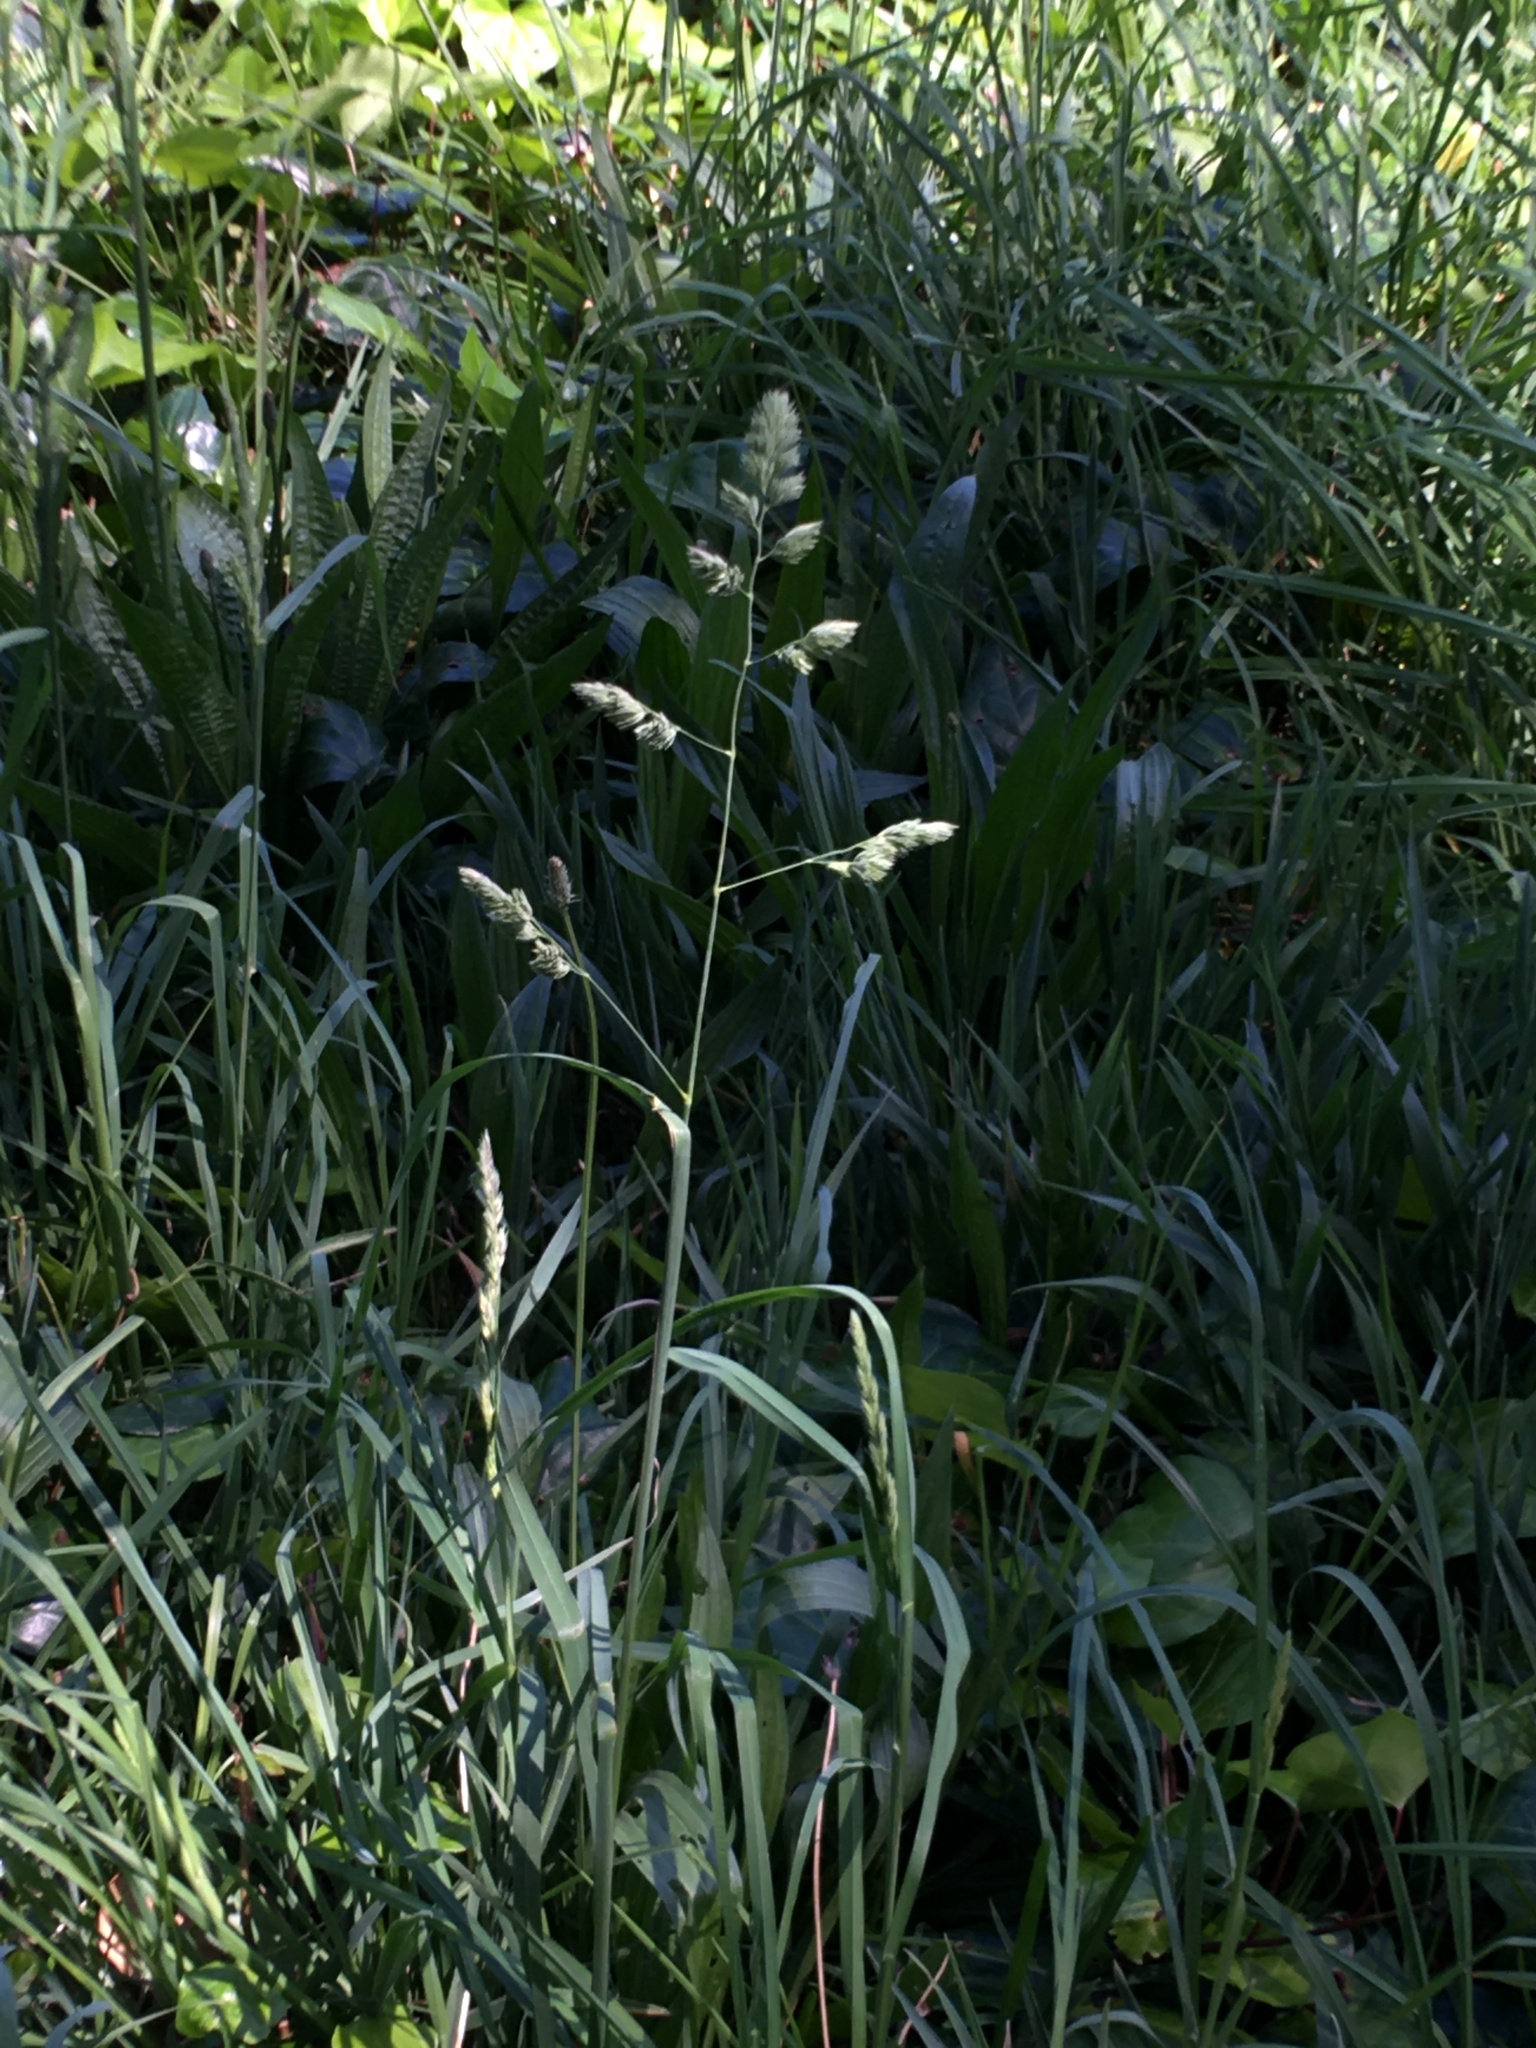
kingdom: Plantae
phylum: Tracheophyta
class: Liliopsida
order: Poales
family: Poaceae
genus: Dactylis
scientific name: Dactylis glomerata
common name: Orchardgrass
